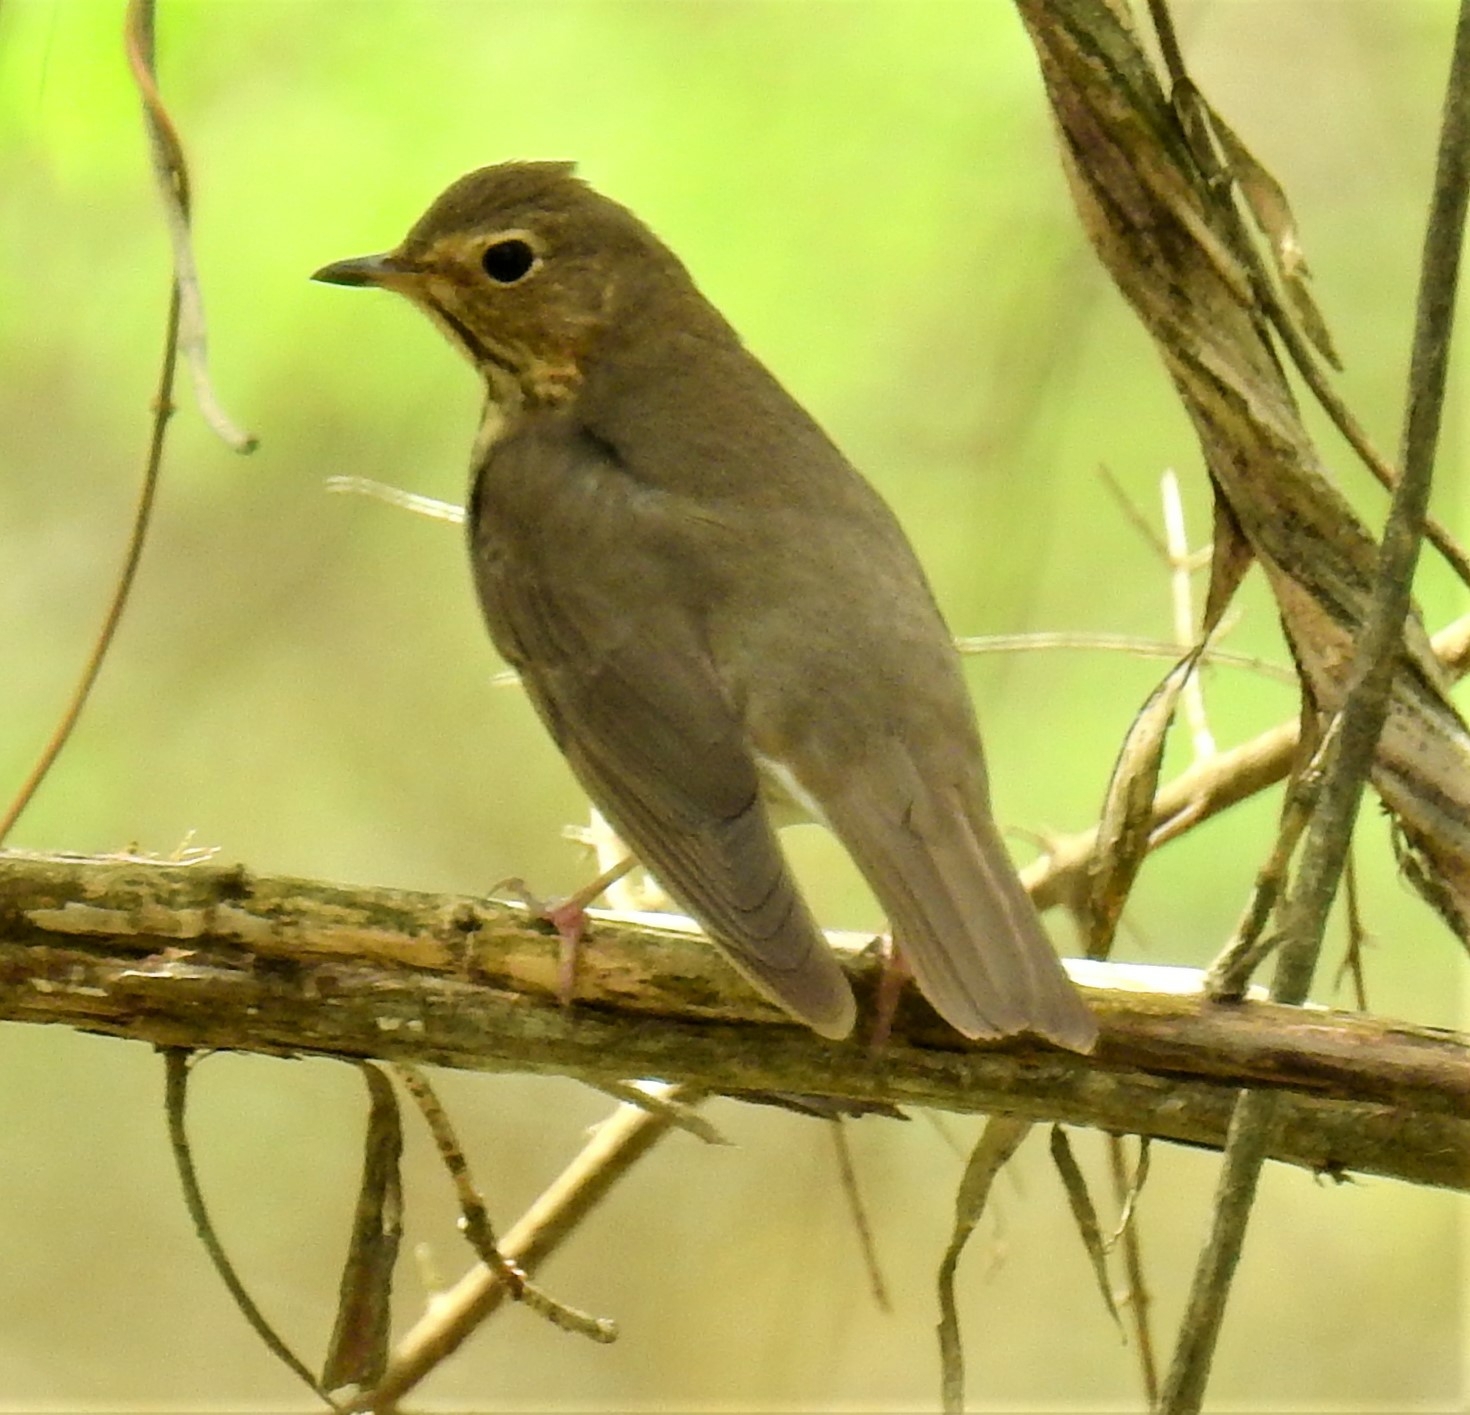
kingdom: Animalia
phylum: Chordata
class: Aves
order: Passeriformes
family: Turdidae
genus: Catharus
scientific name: Catharus ustulatus
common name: Swainson's thrush
